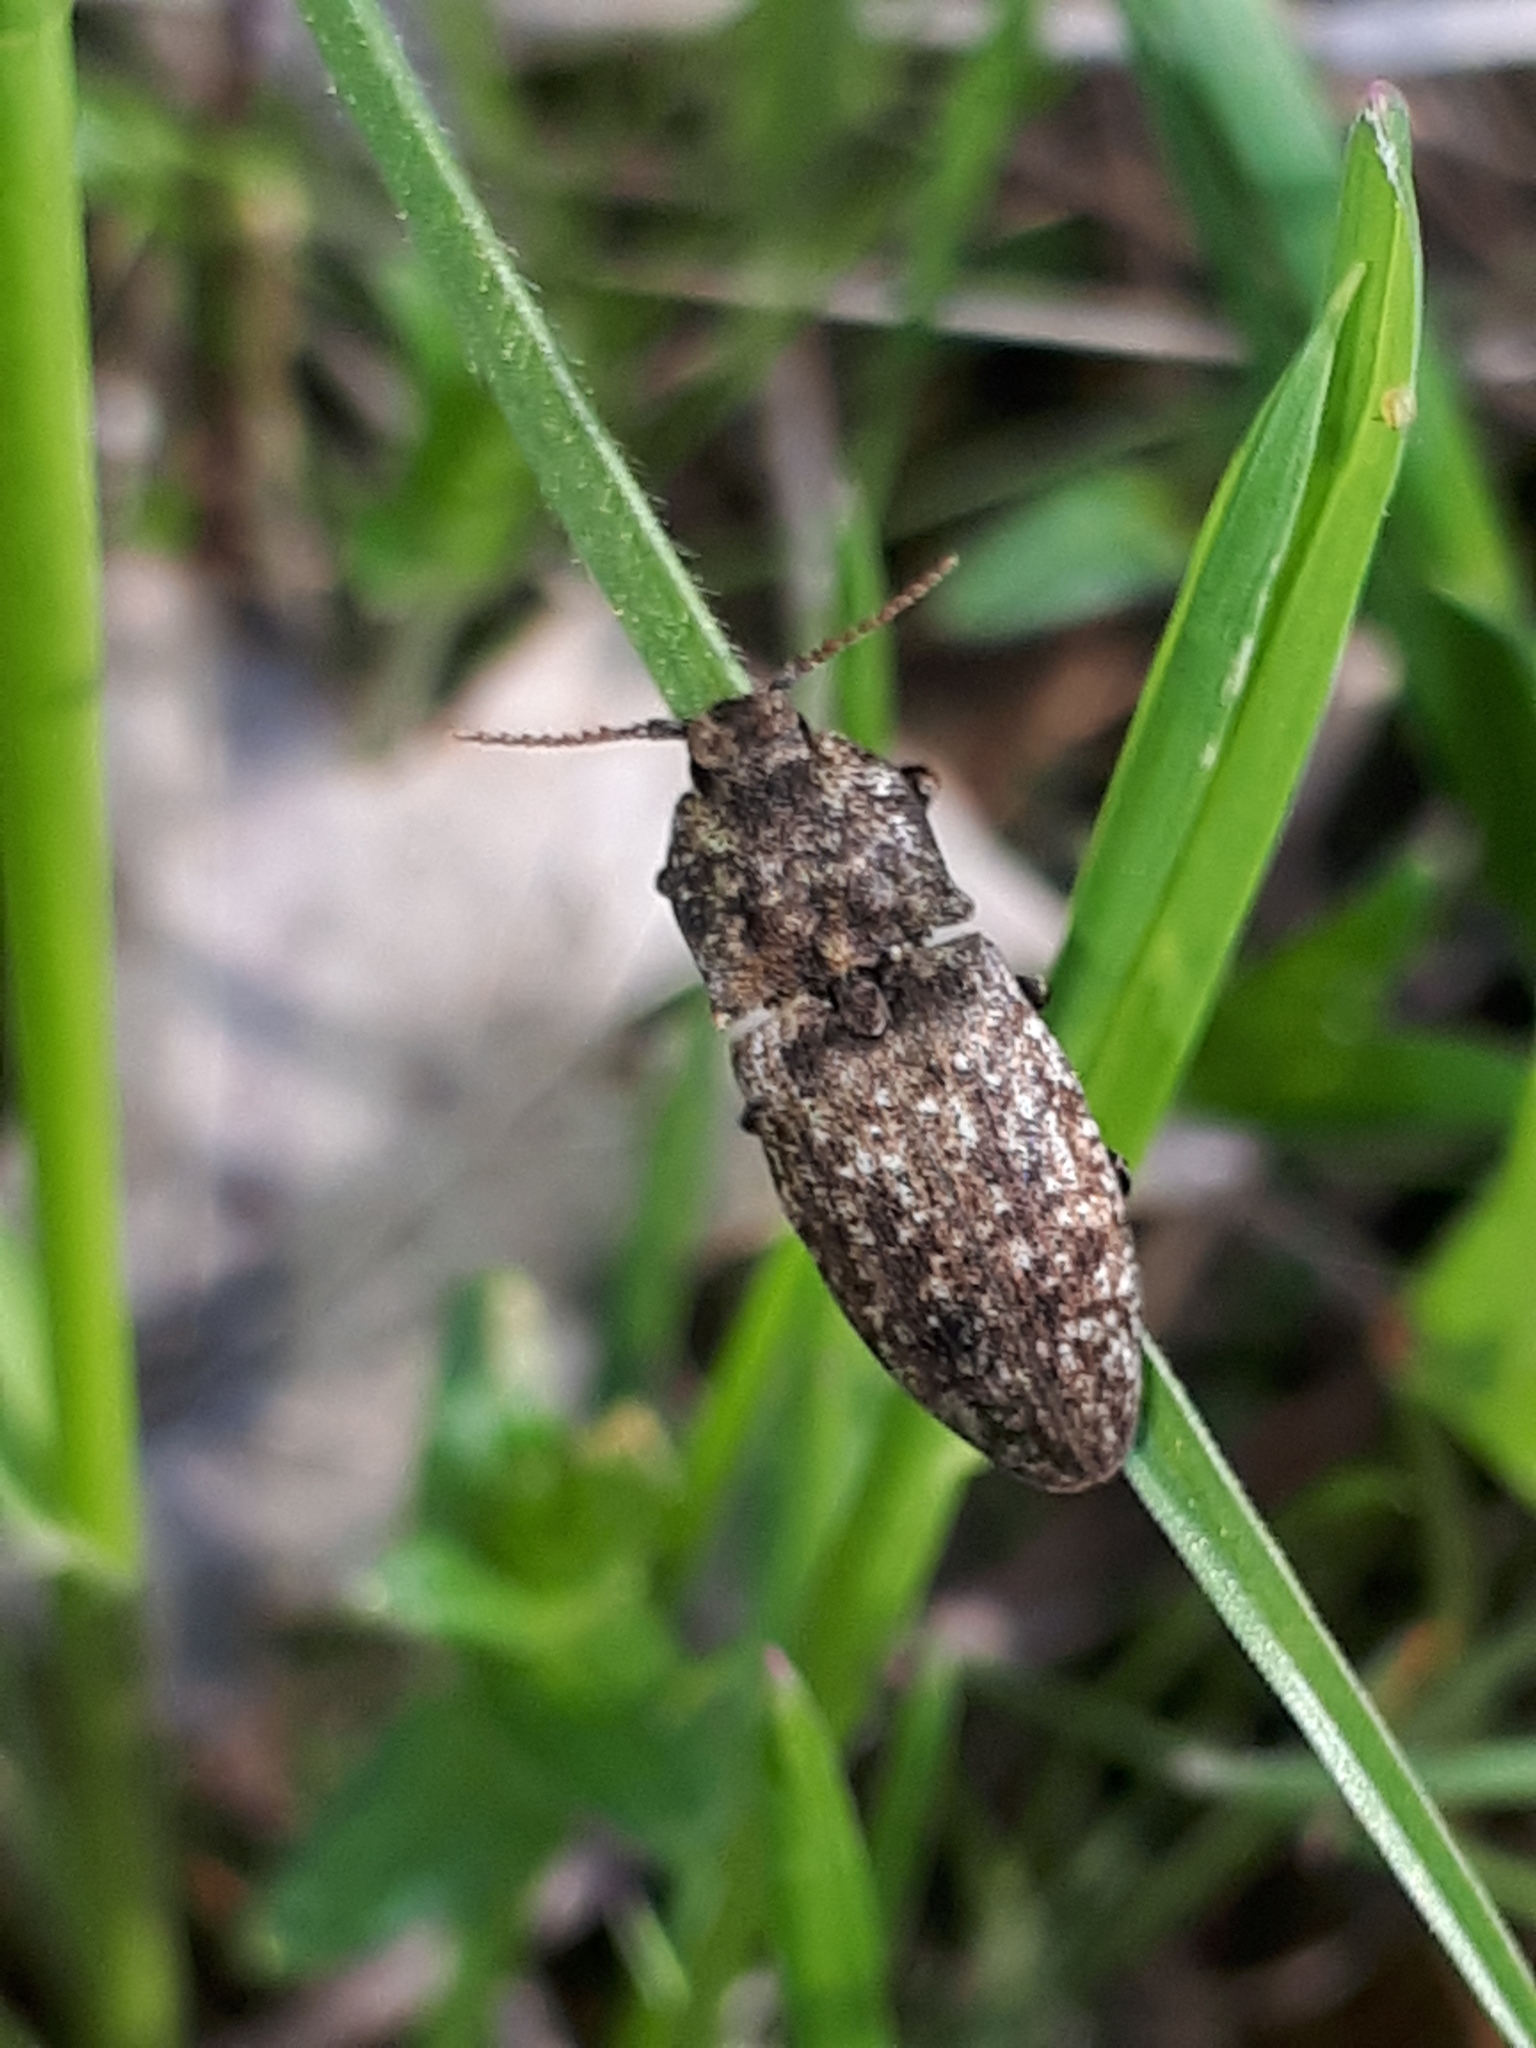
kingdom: Animalia
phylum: Arthropoda
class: Insecta
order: Coleoptera
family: Elateridae
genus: Agrypnus
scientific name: Agrypnus murinus
